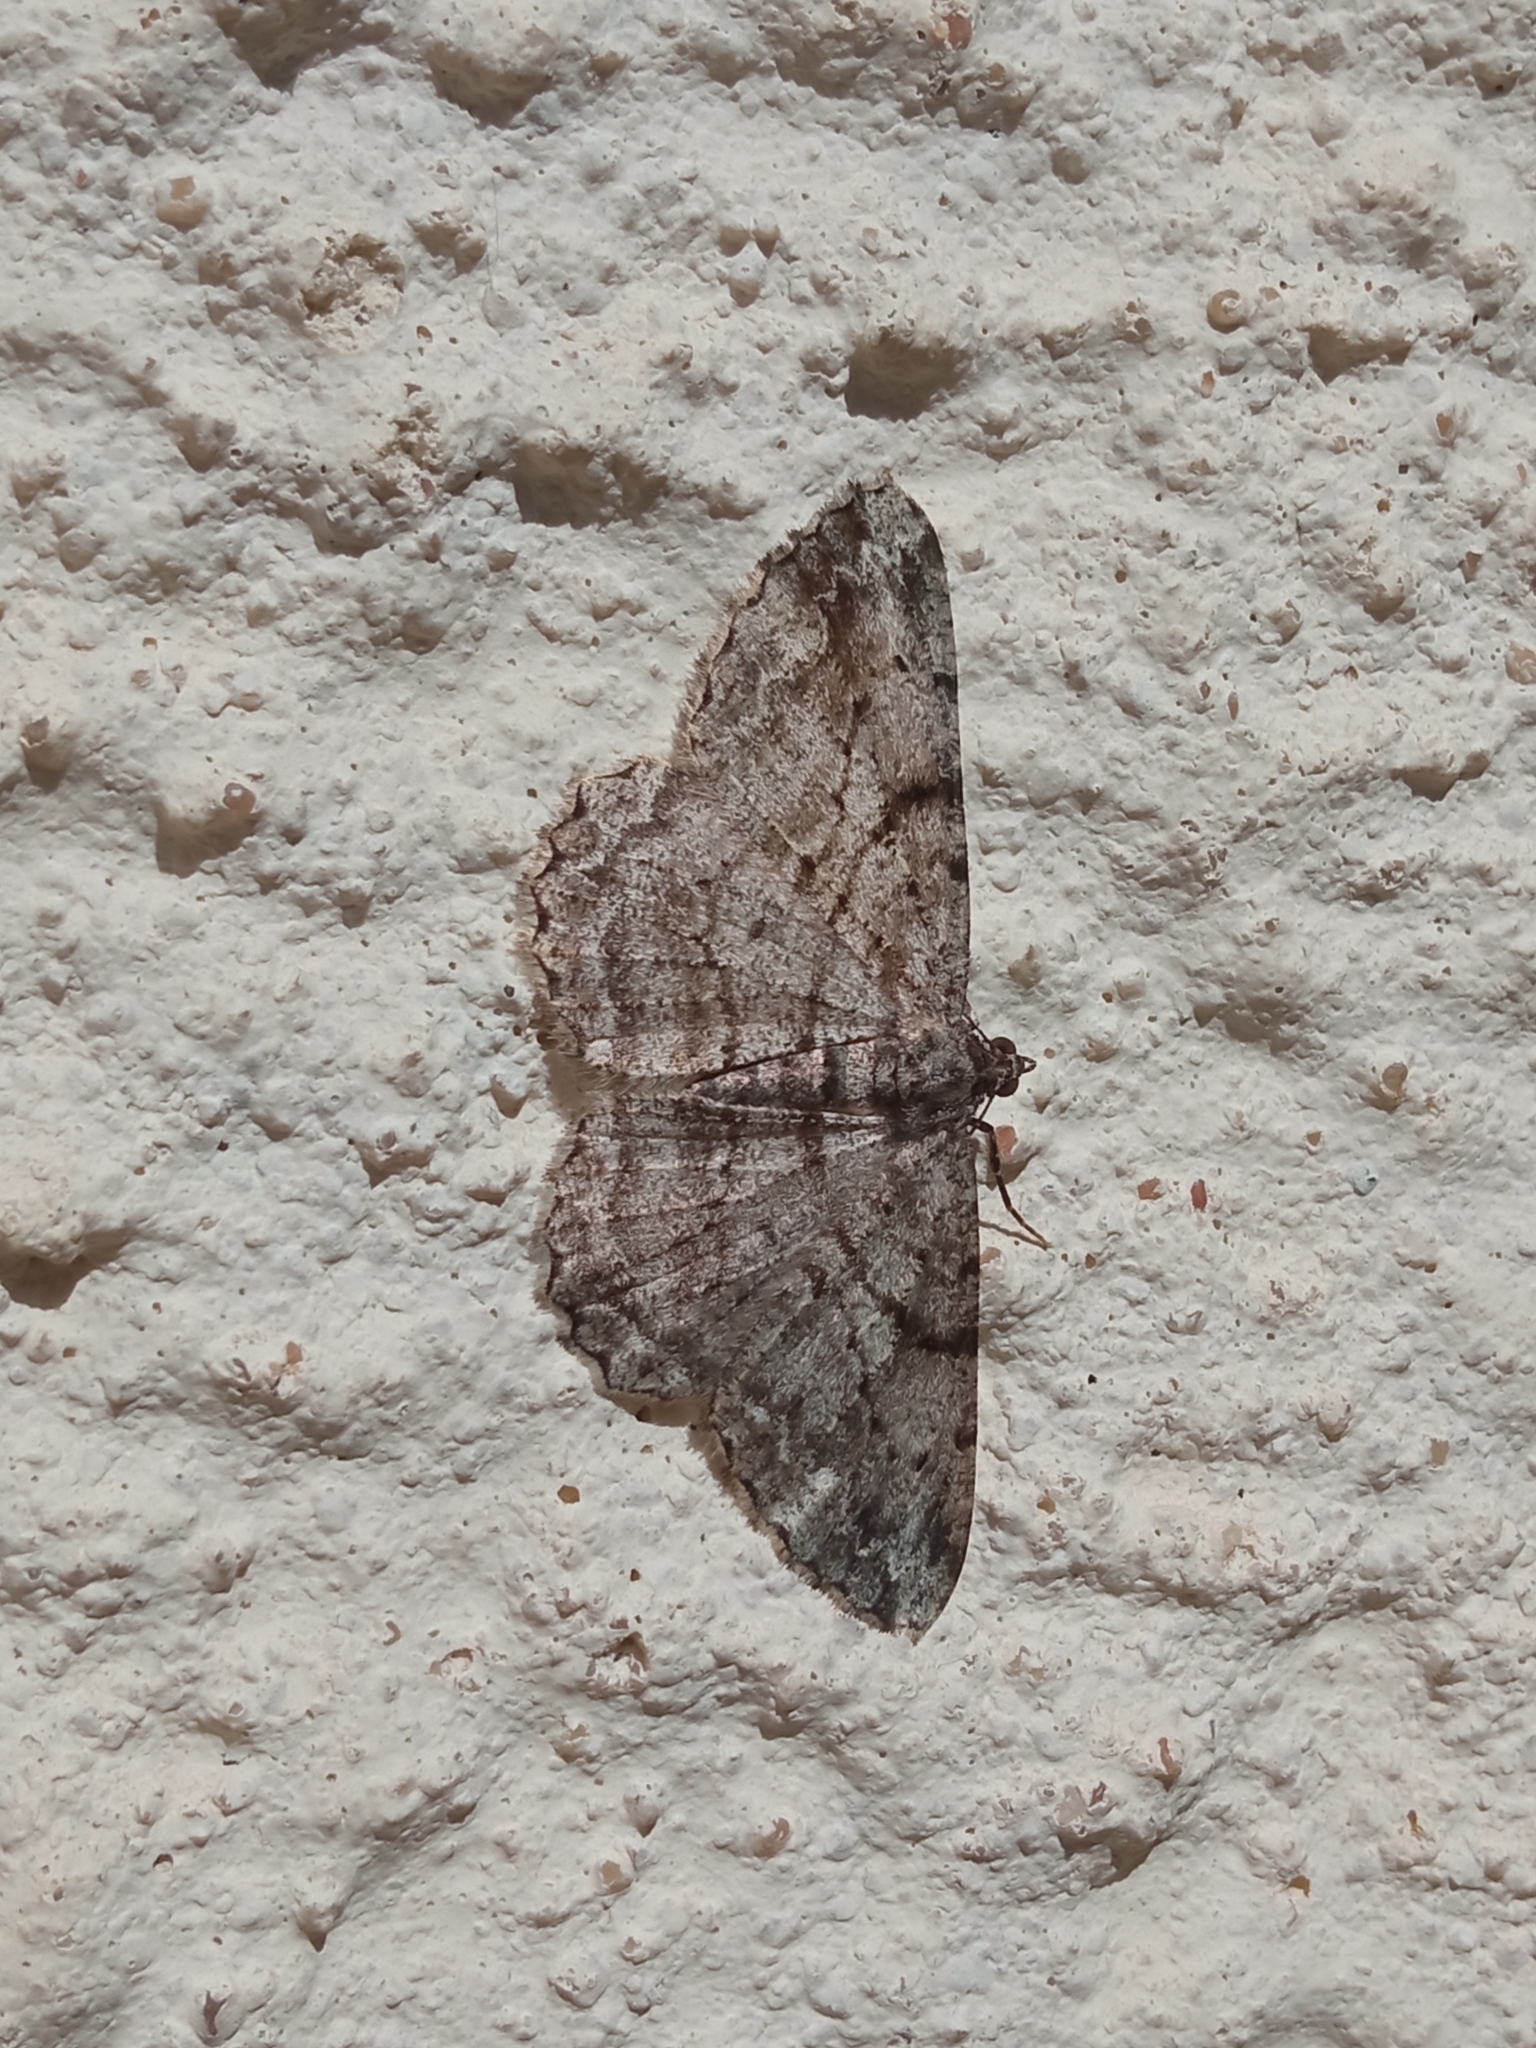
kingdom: Animalia
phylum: Arthropoda
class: Insecta
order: Lepidoptera
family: Geometridae
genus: Peribatodes
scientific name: Peribatodes rhomboidaria
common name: Willow beauty
